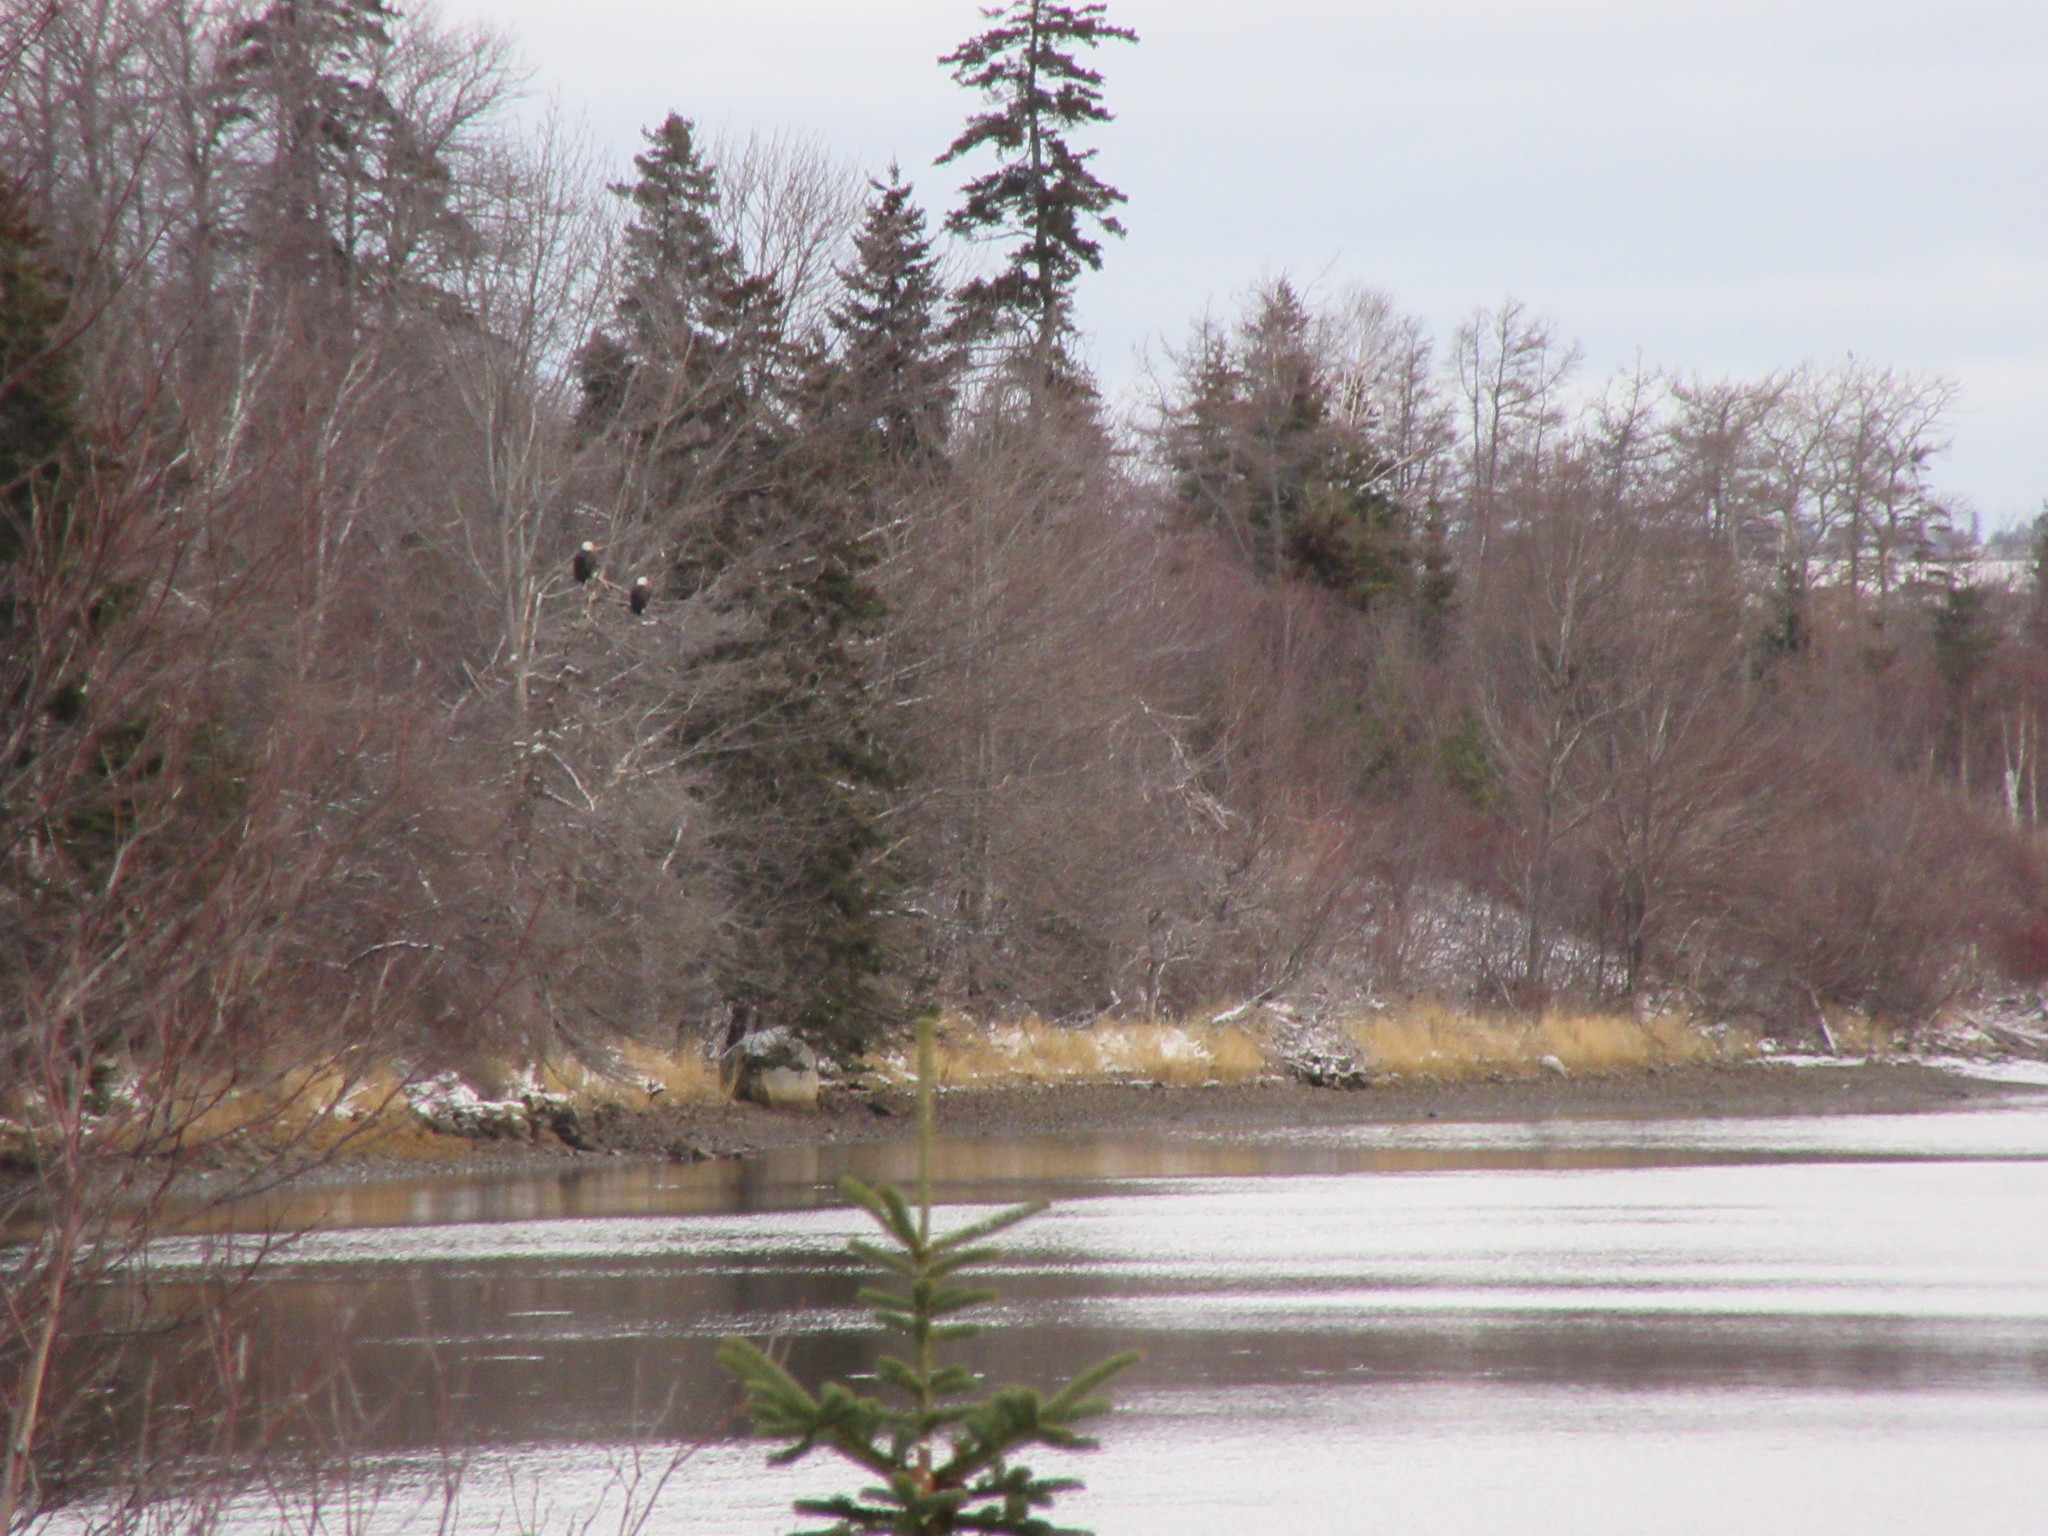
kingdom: Animalia
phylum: Chordata
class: Aves
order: Accipitriformes
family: Accipitridae
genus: Haliaeetus
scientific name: Haliaeetus leucocephalus
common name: Bald eagle
